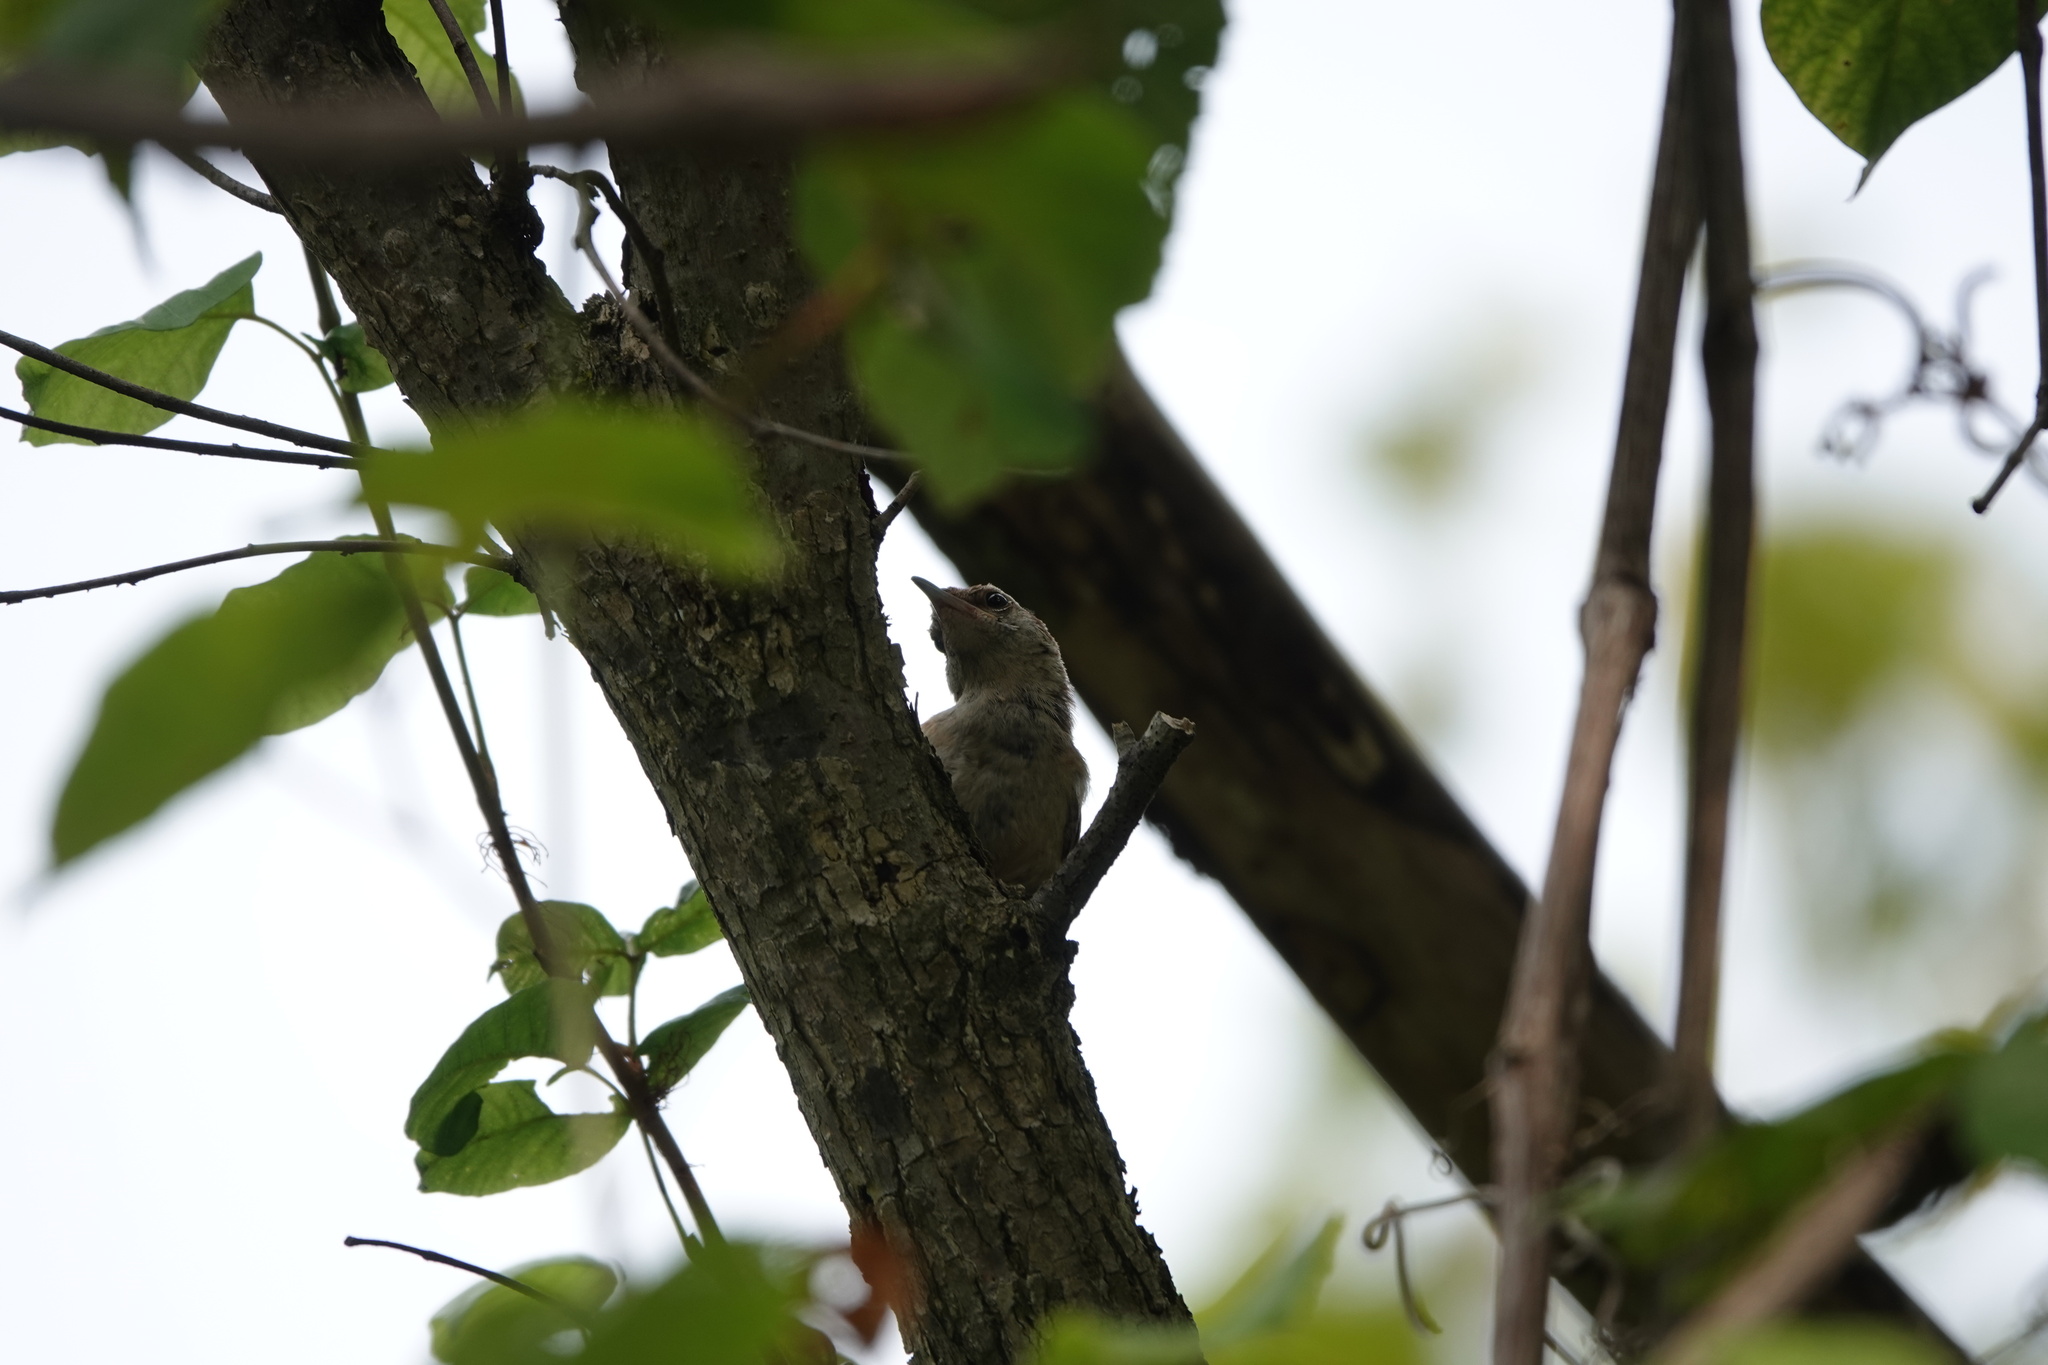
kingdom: Animalia
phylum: Chordata
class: Aves
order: Passeriformes
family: Troglodytidae
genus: Thryothorus
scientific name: Thryothorus ludovicianus
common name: Carolina wren
